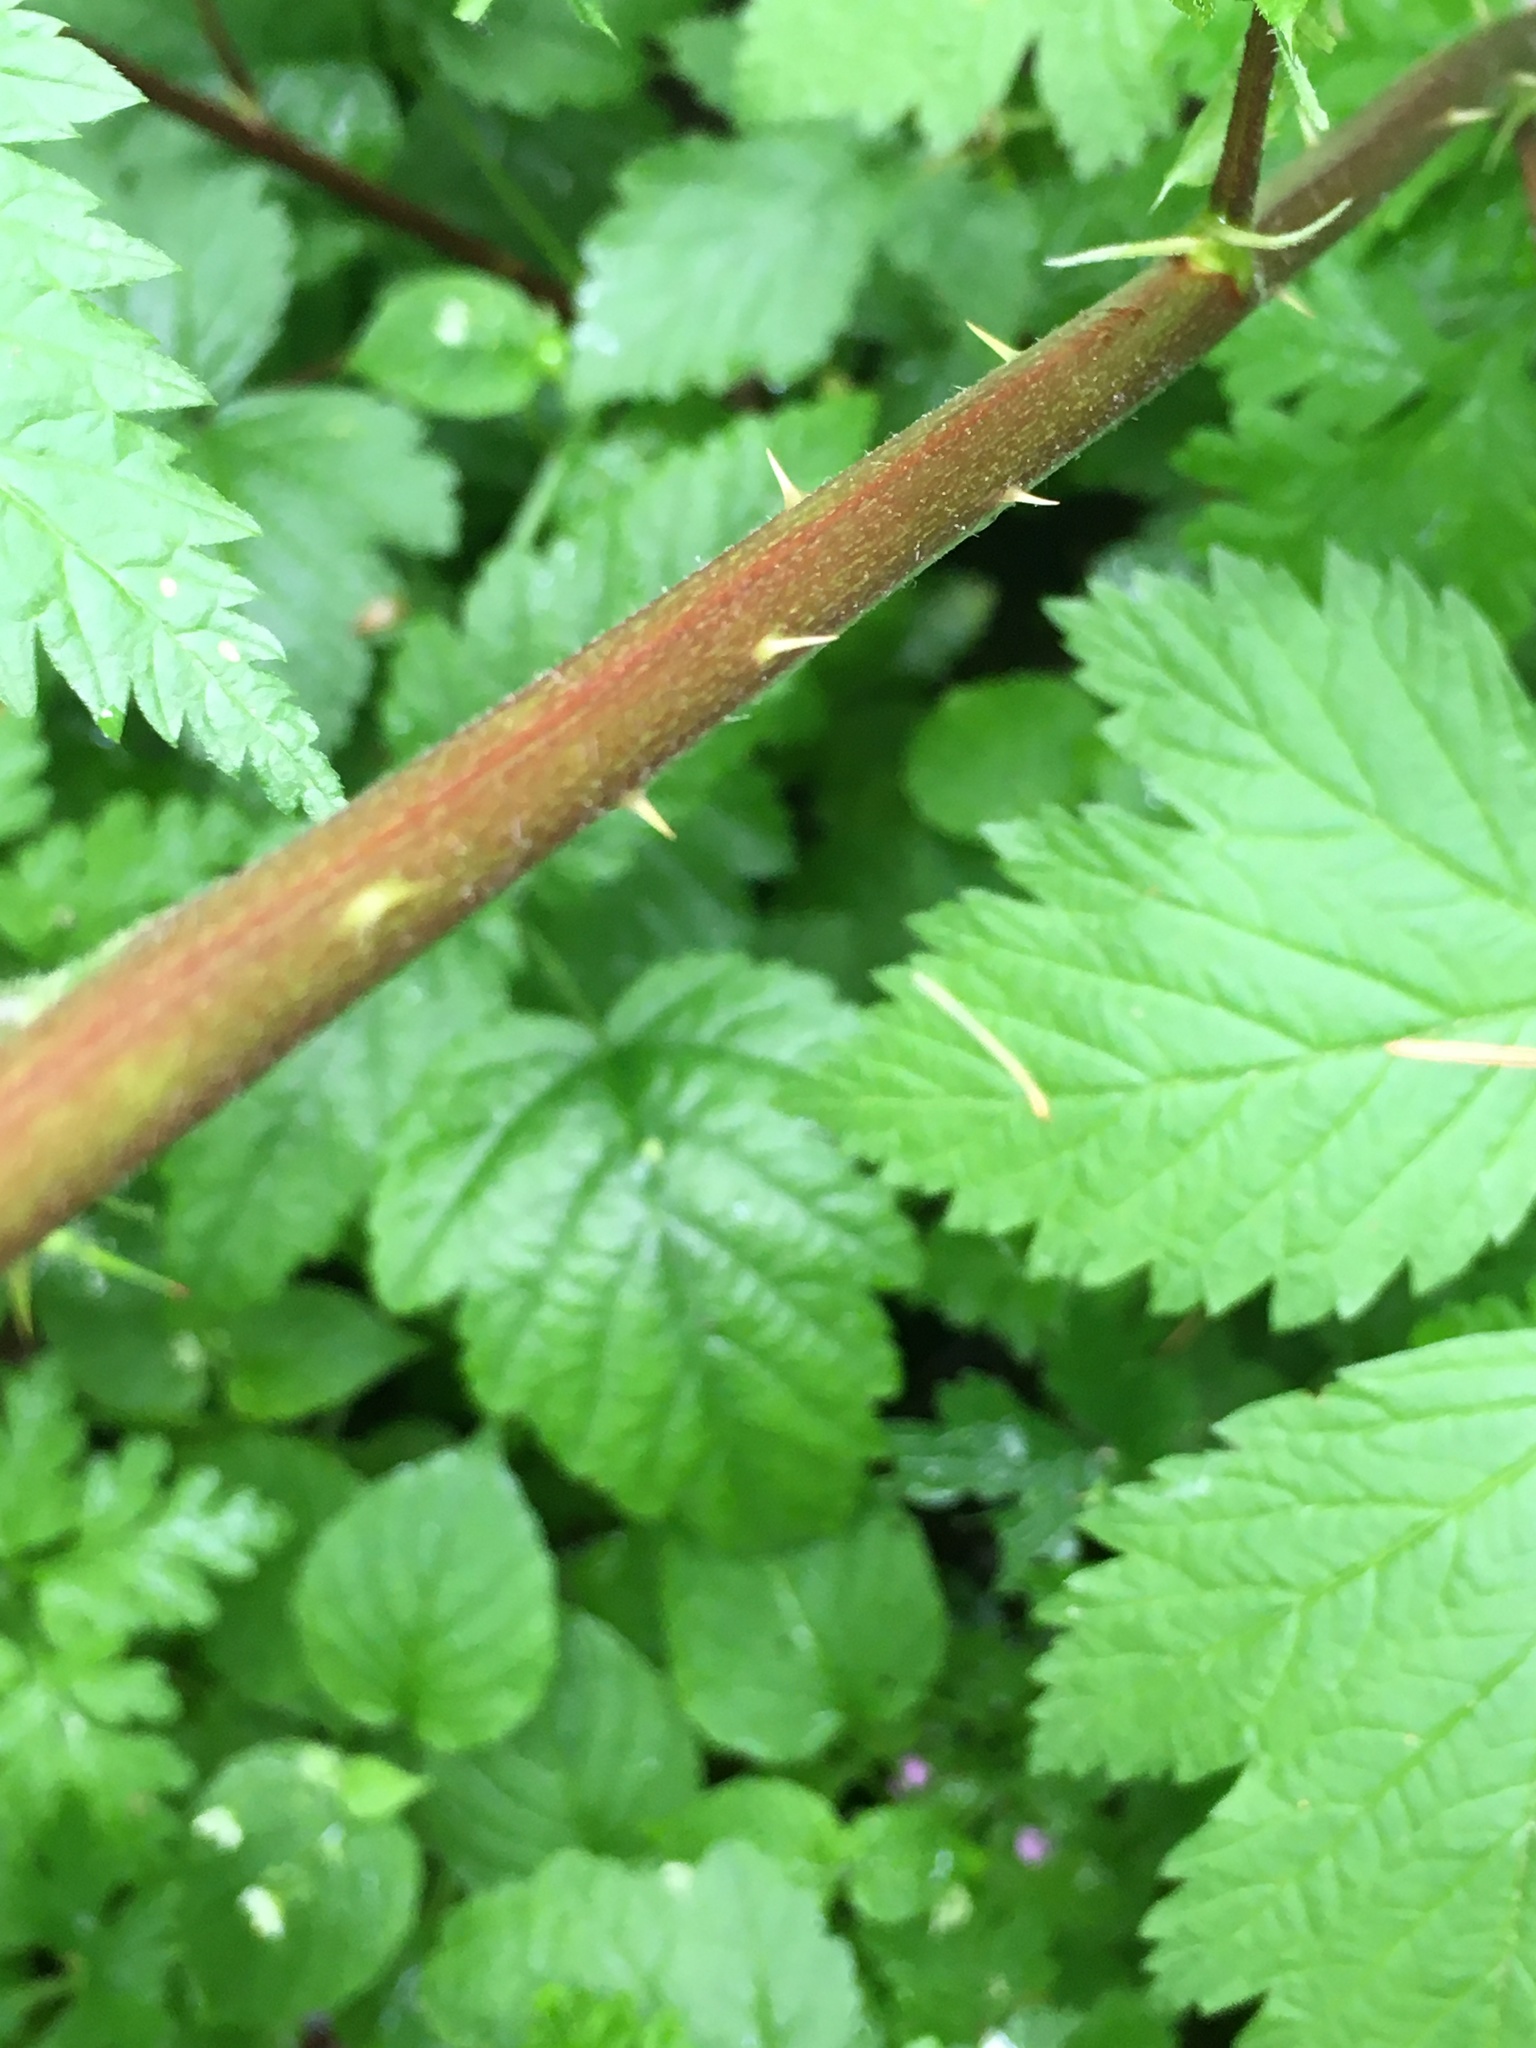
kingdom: Plantae
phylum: Tracheophyta
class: Magnoliopsida
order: Rosales
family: Rosaceae
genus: Rubus
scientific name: Rubus spectabilis
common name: Salmonberry
